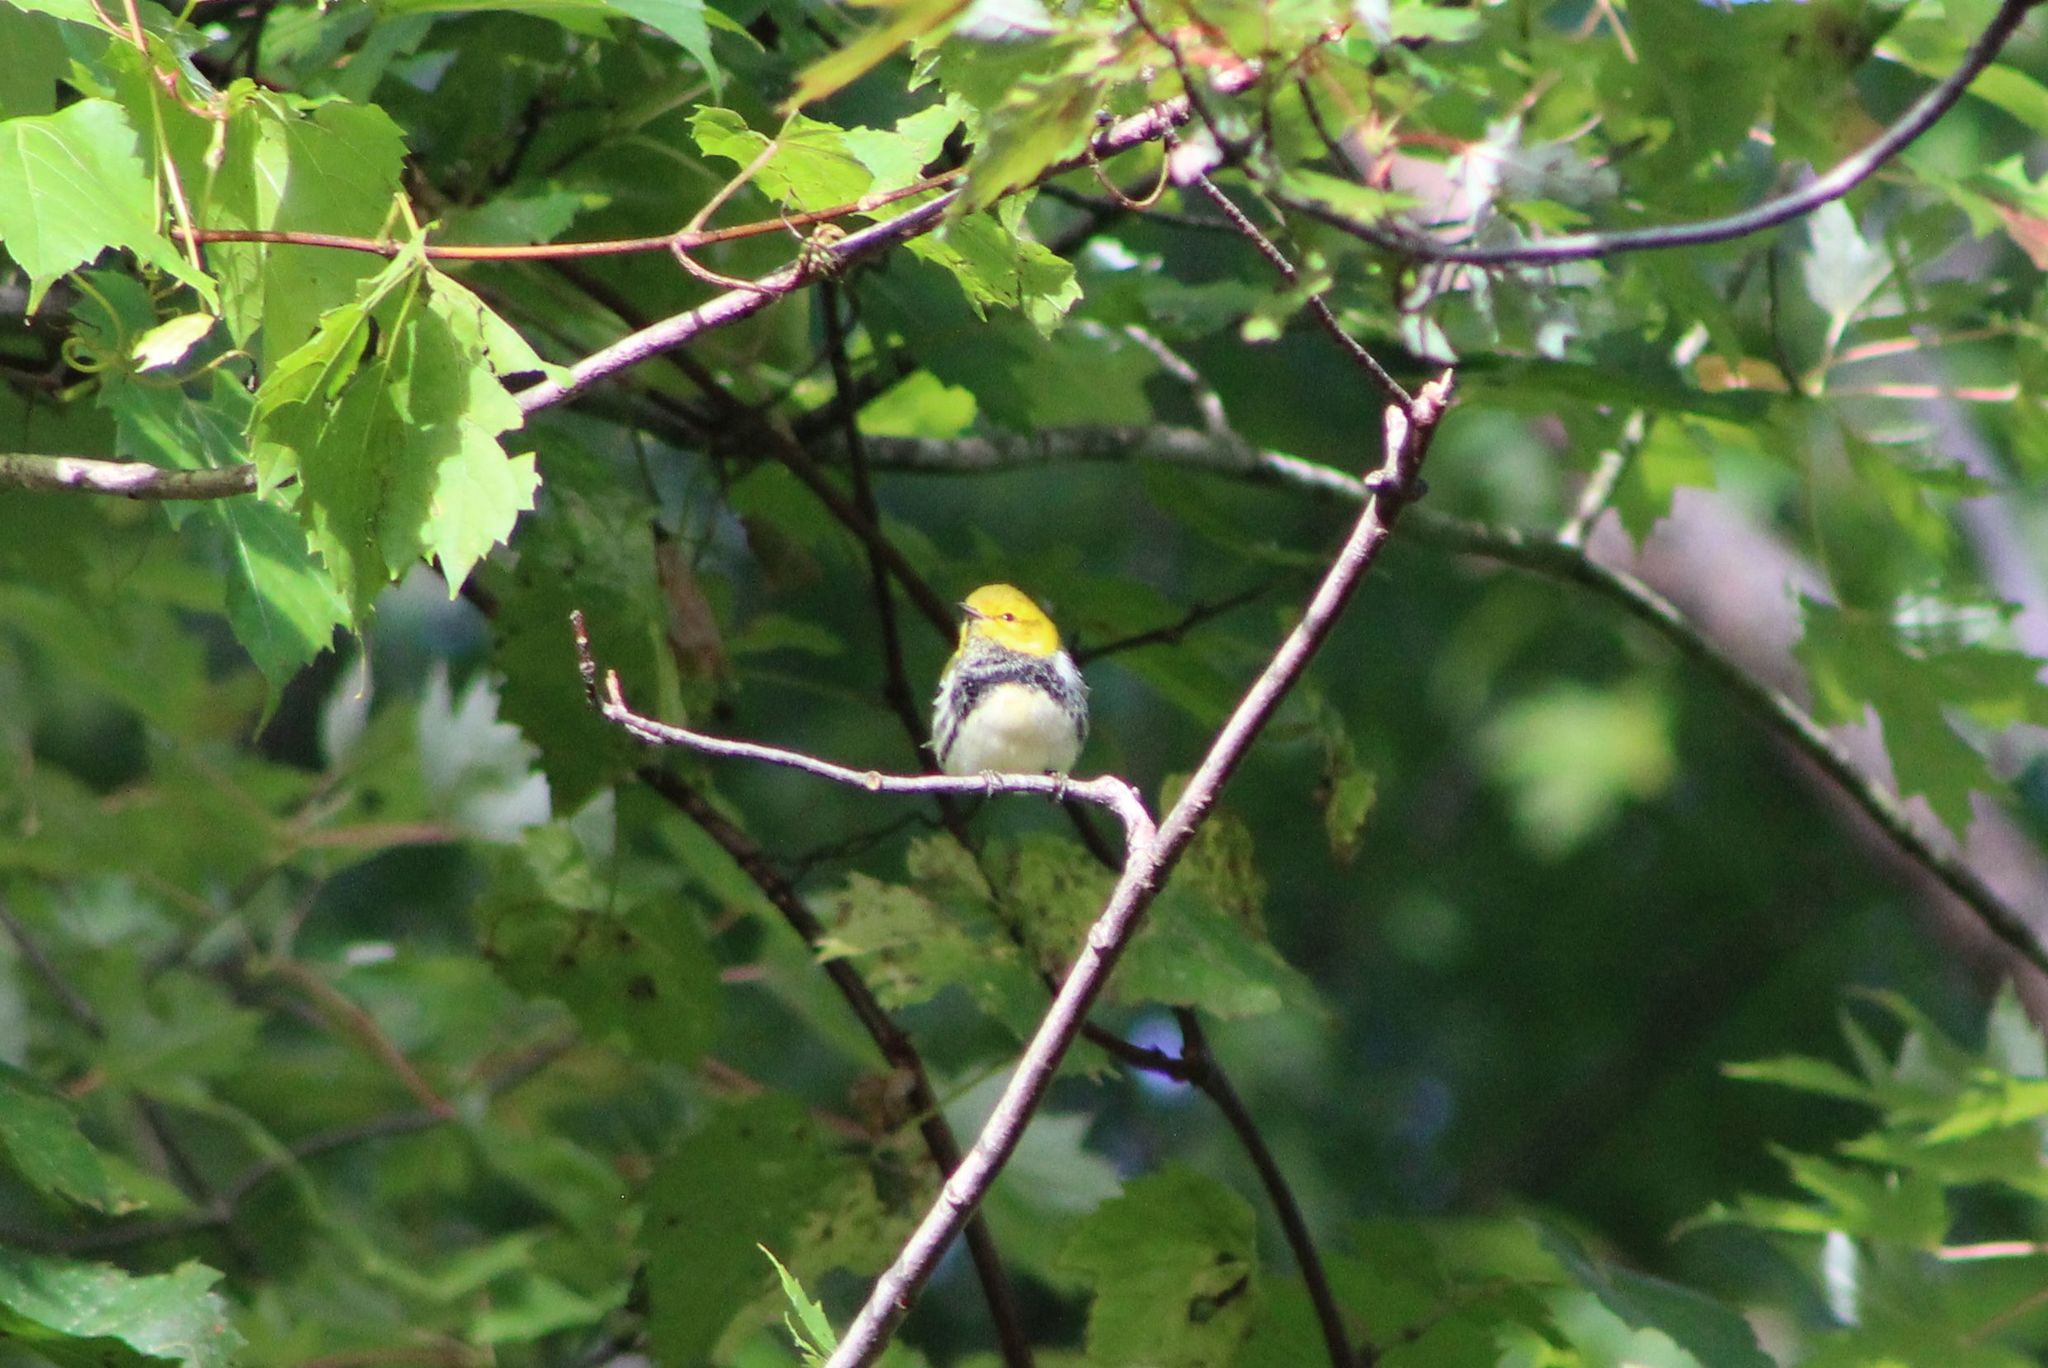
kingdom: Animalia
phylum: Chordata
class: Aves
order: Passeriformes
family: Parulidae
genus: Setophaga
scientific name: Setophaga virens
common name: Black-throated green warbler
